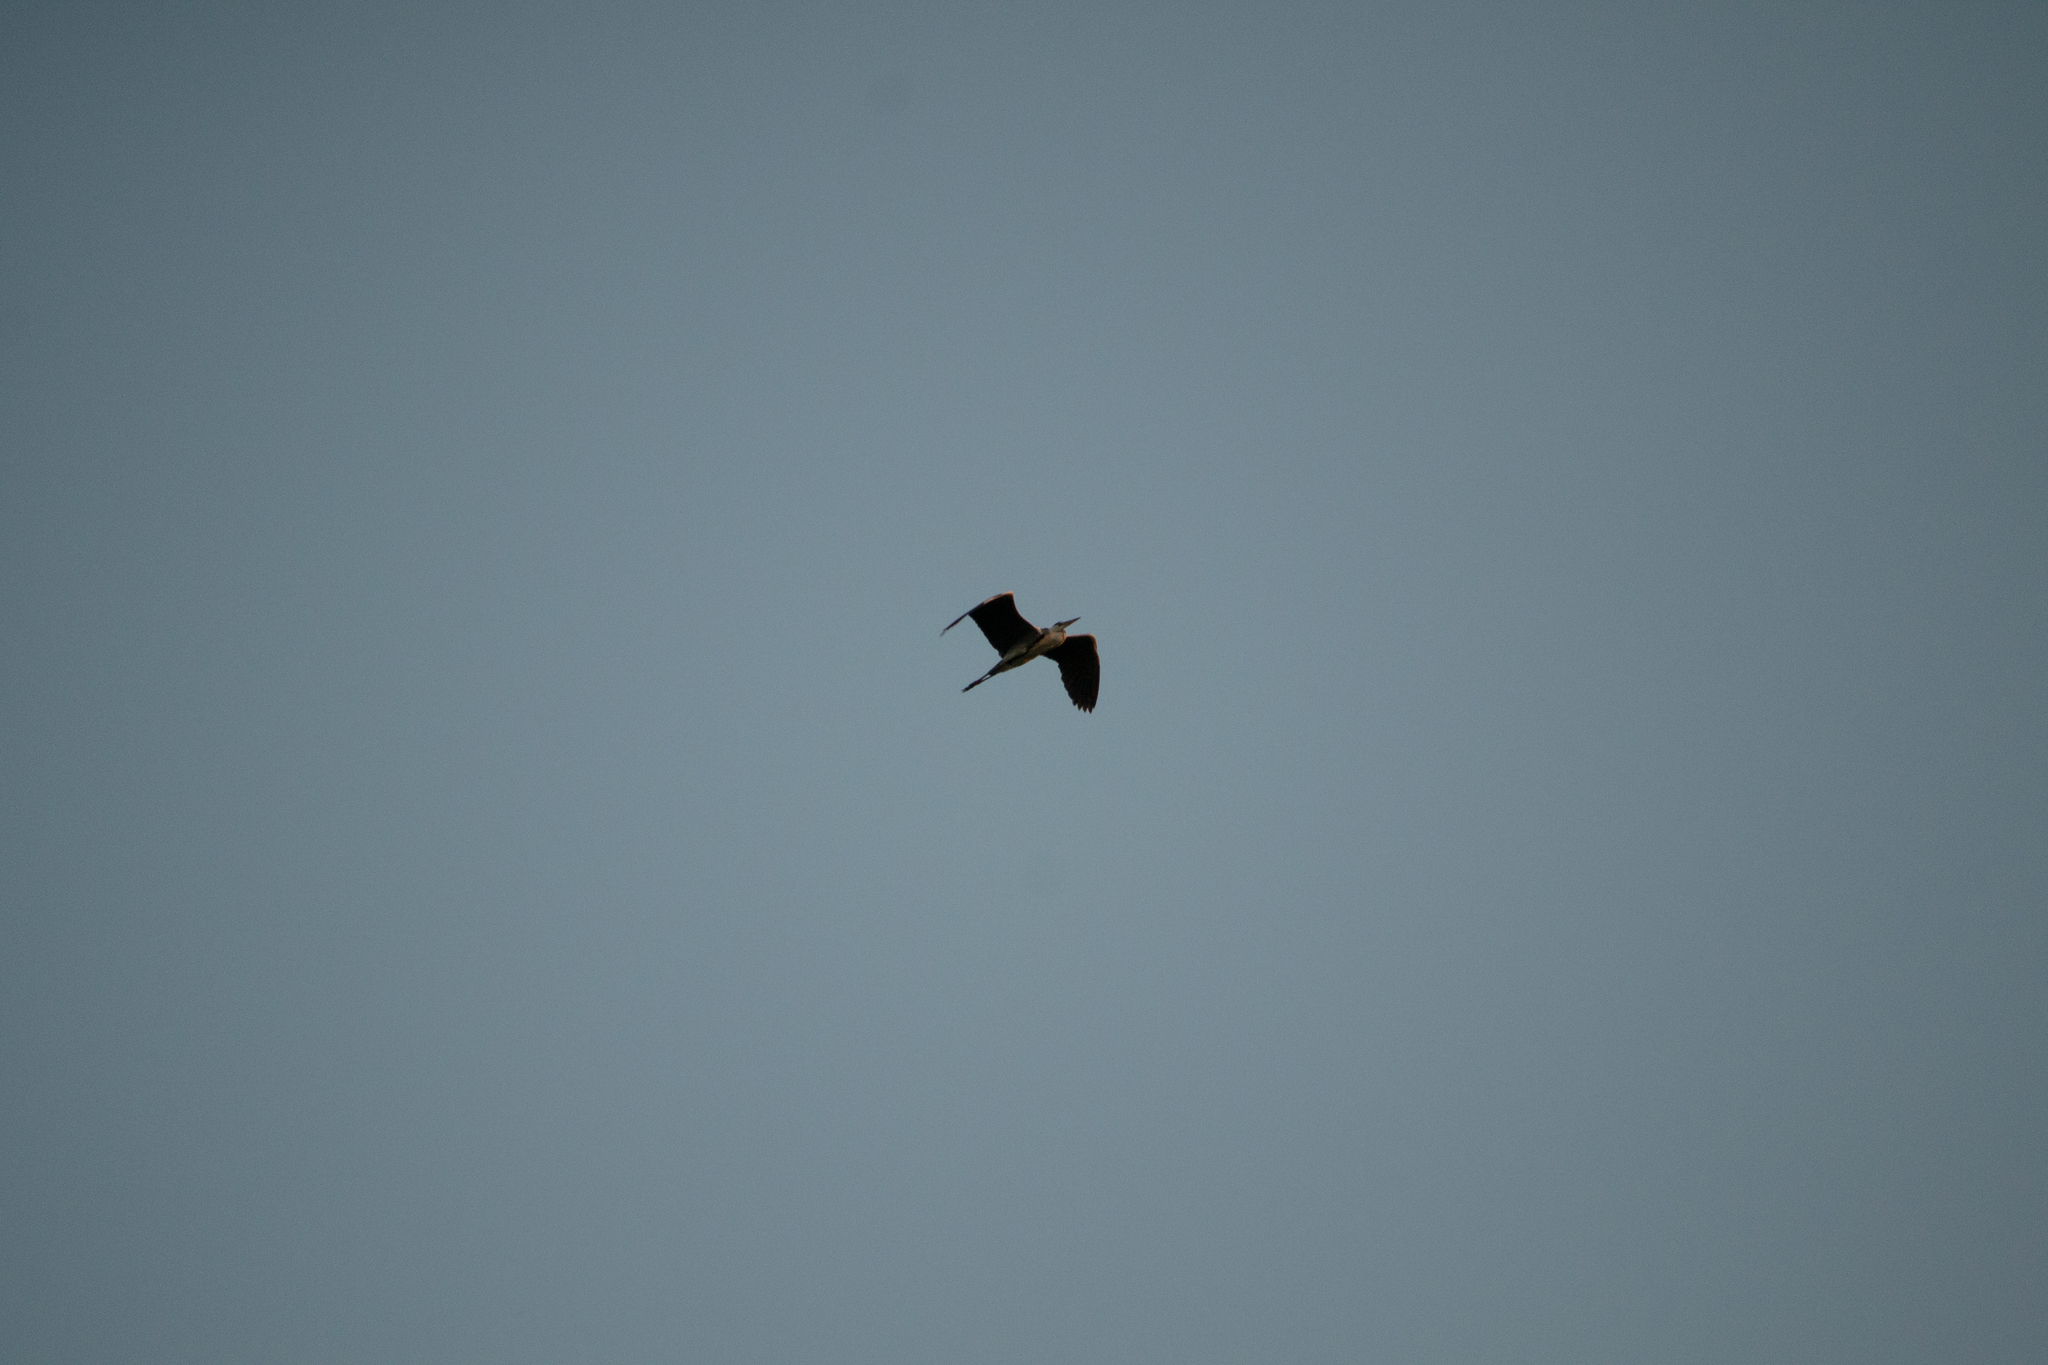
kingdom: Animalia
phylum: Chordata
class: Aves
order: Pelecaniformes
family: Ardeidae
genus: Ardea
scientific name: Ardea cinerea
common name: Grey heron
